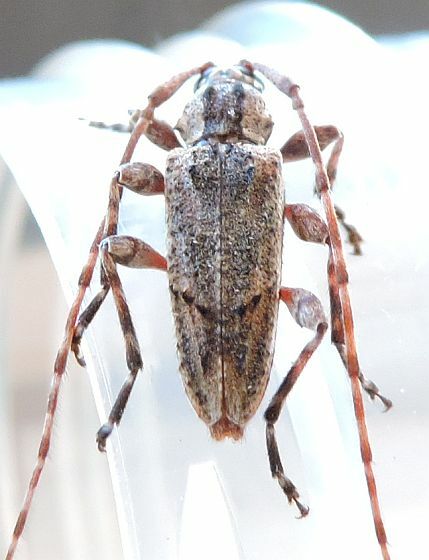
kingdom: Animalia
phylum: Arthropoda
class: Insecta
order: Coleoptera
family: Cerambycidae
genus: Trichocanonura
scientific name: Trichocanonura linearis
